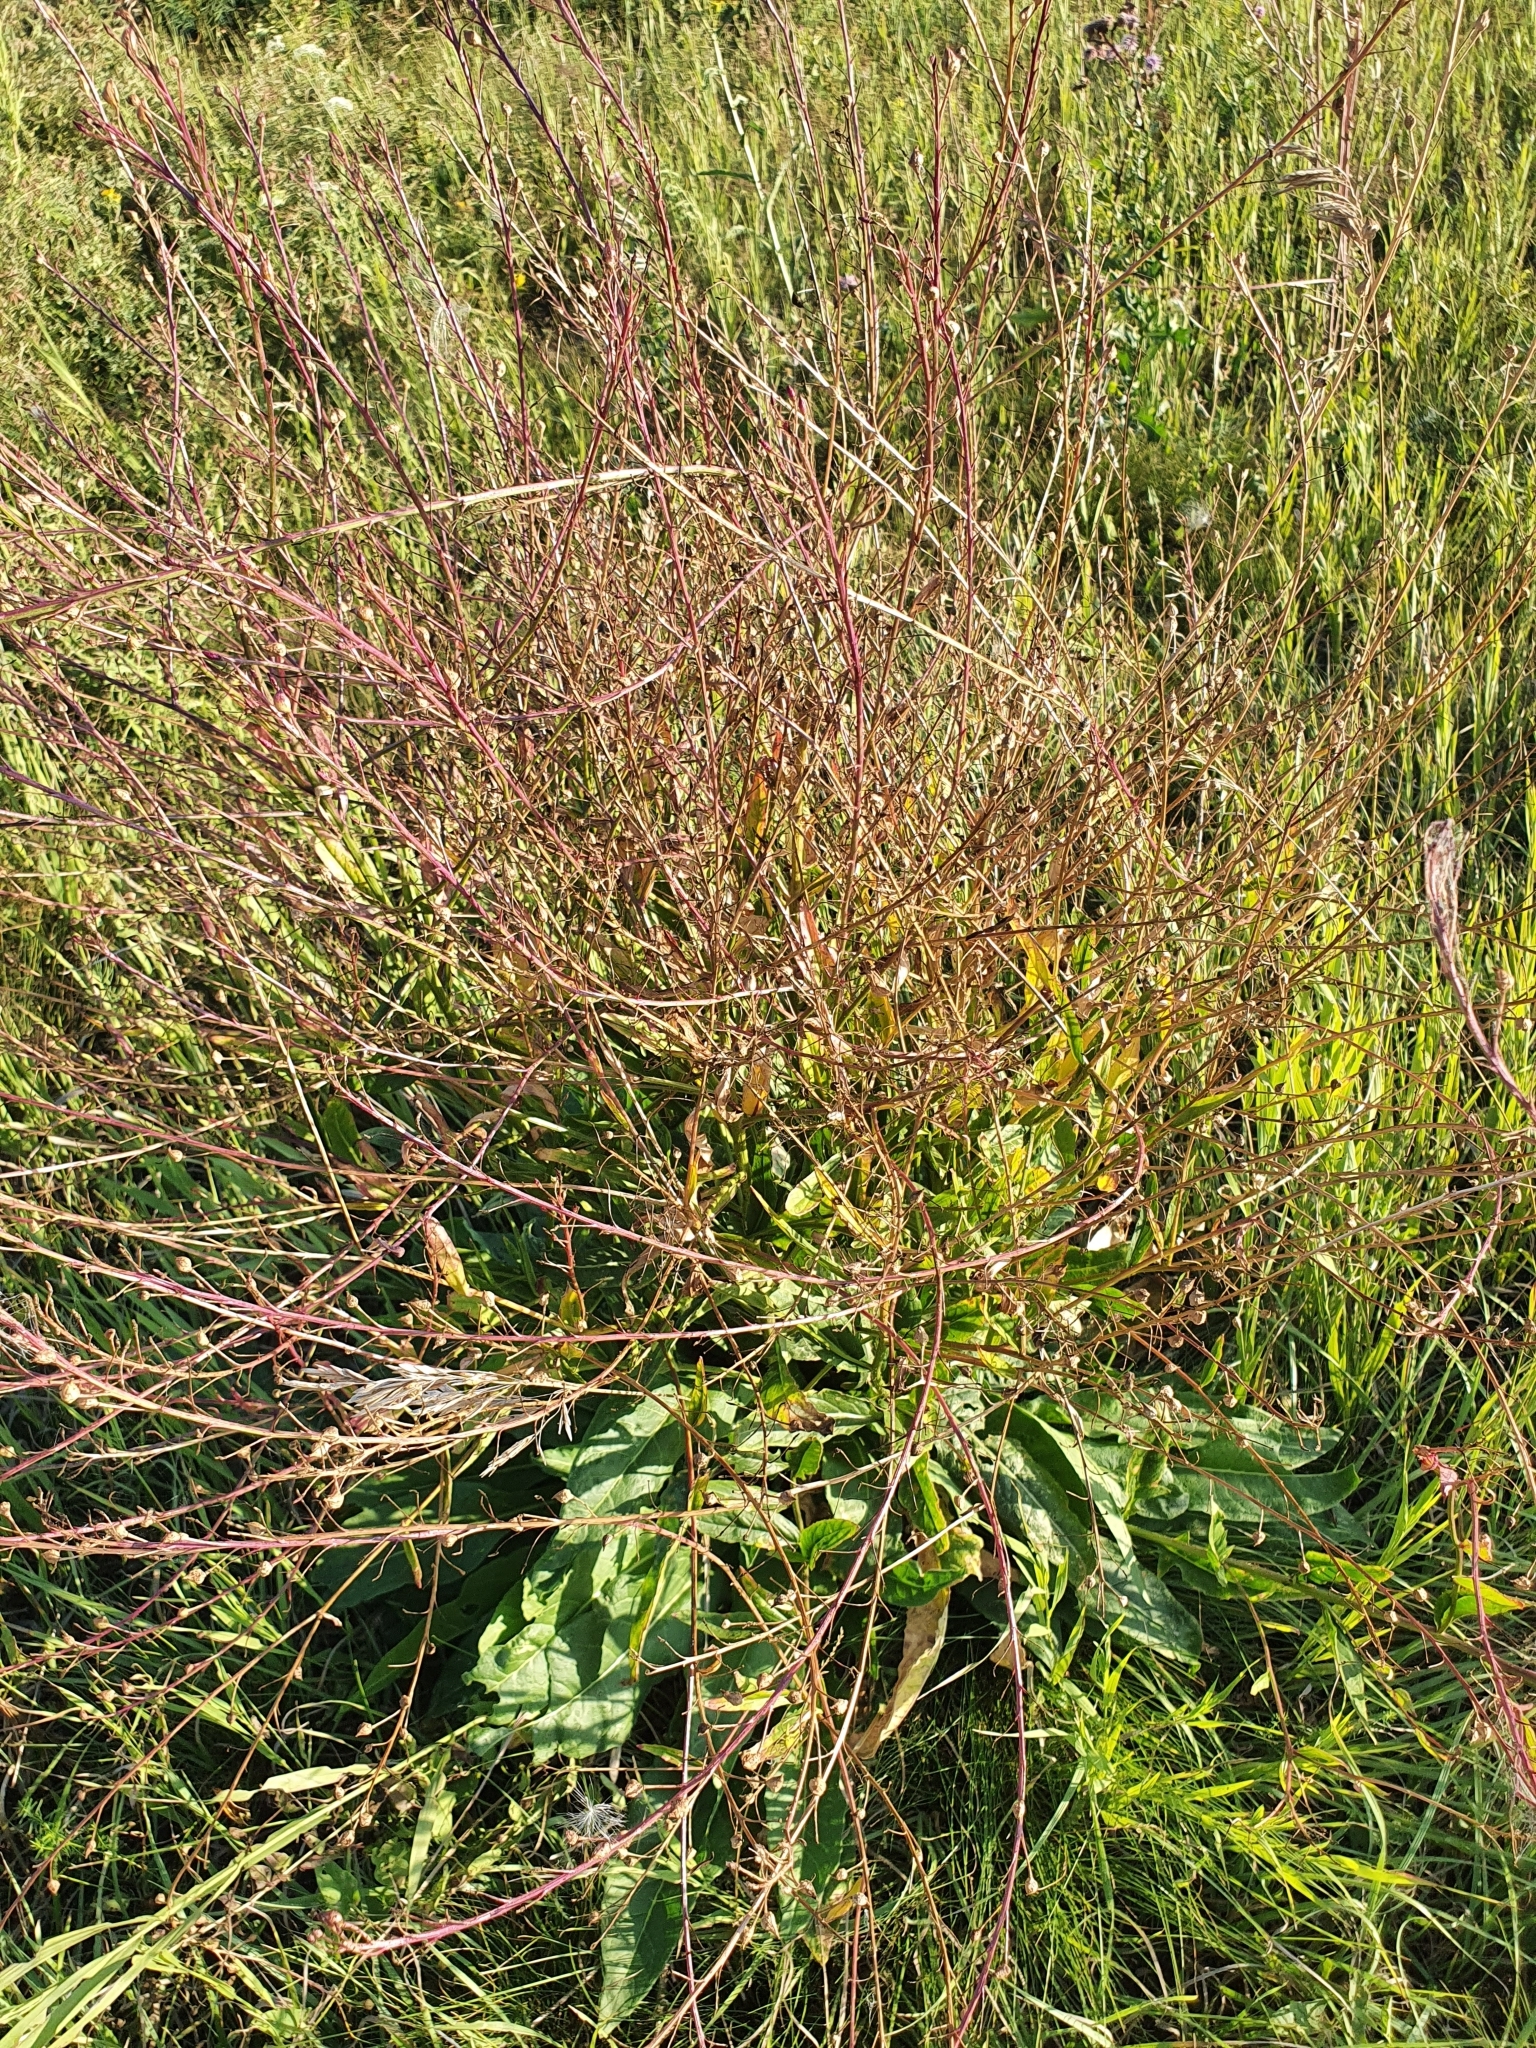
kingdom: Plantae
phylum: Tracheophyta
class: Magnoliopsida
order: Brassicales
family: Brassicaceae
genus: Bunias
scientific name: Bunias orientalis
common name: Warty-cabbage
